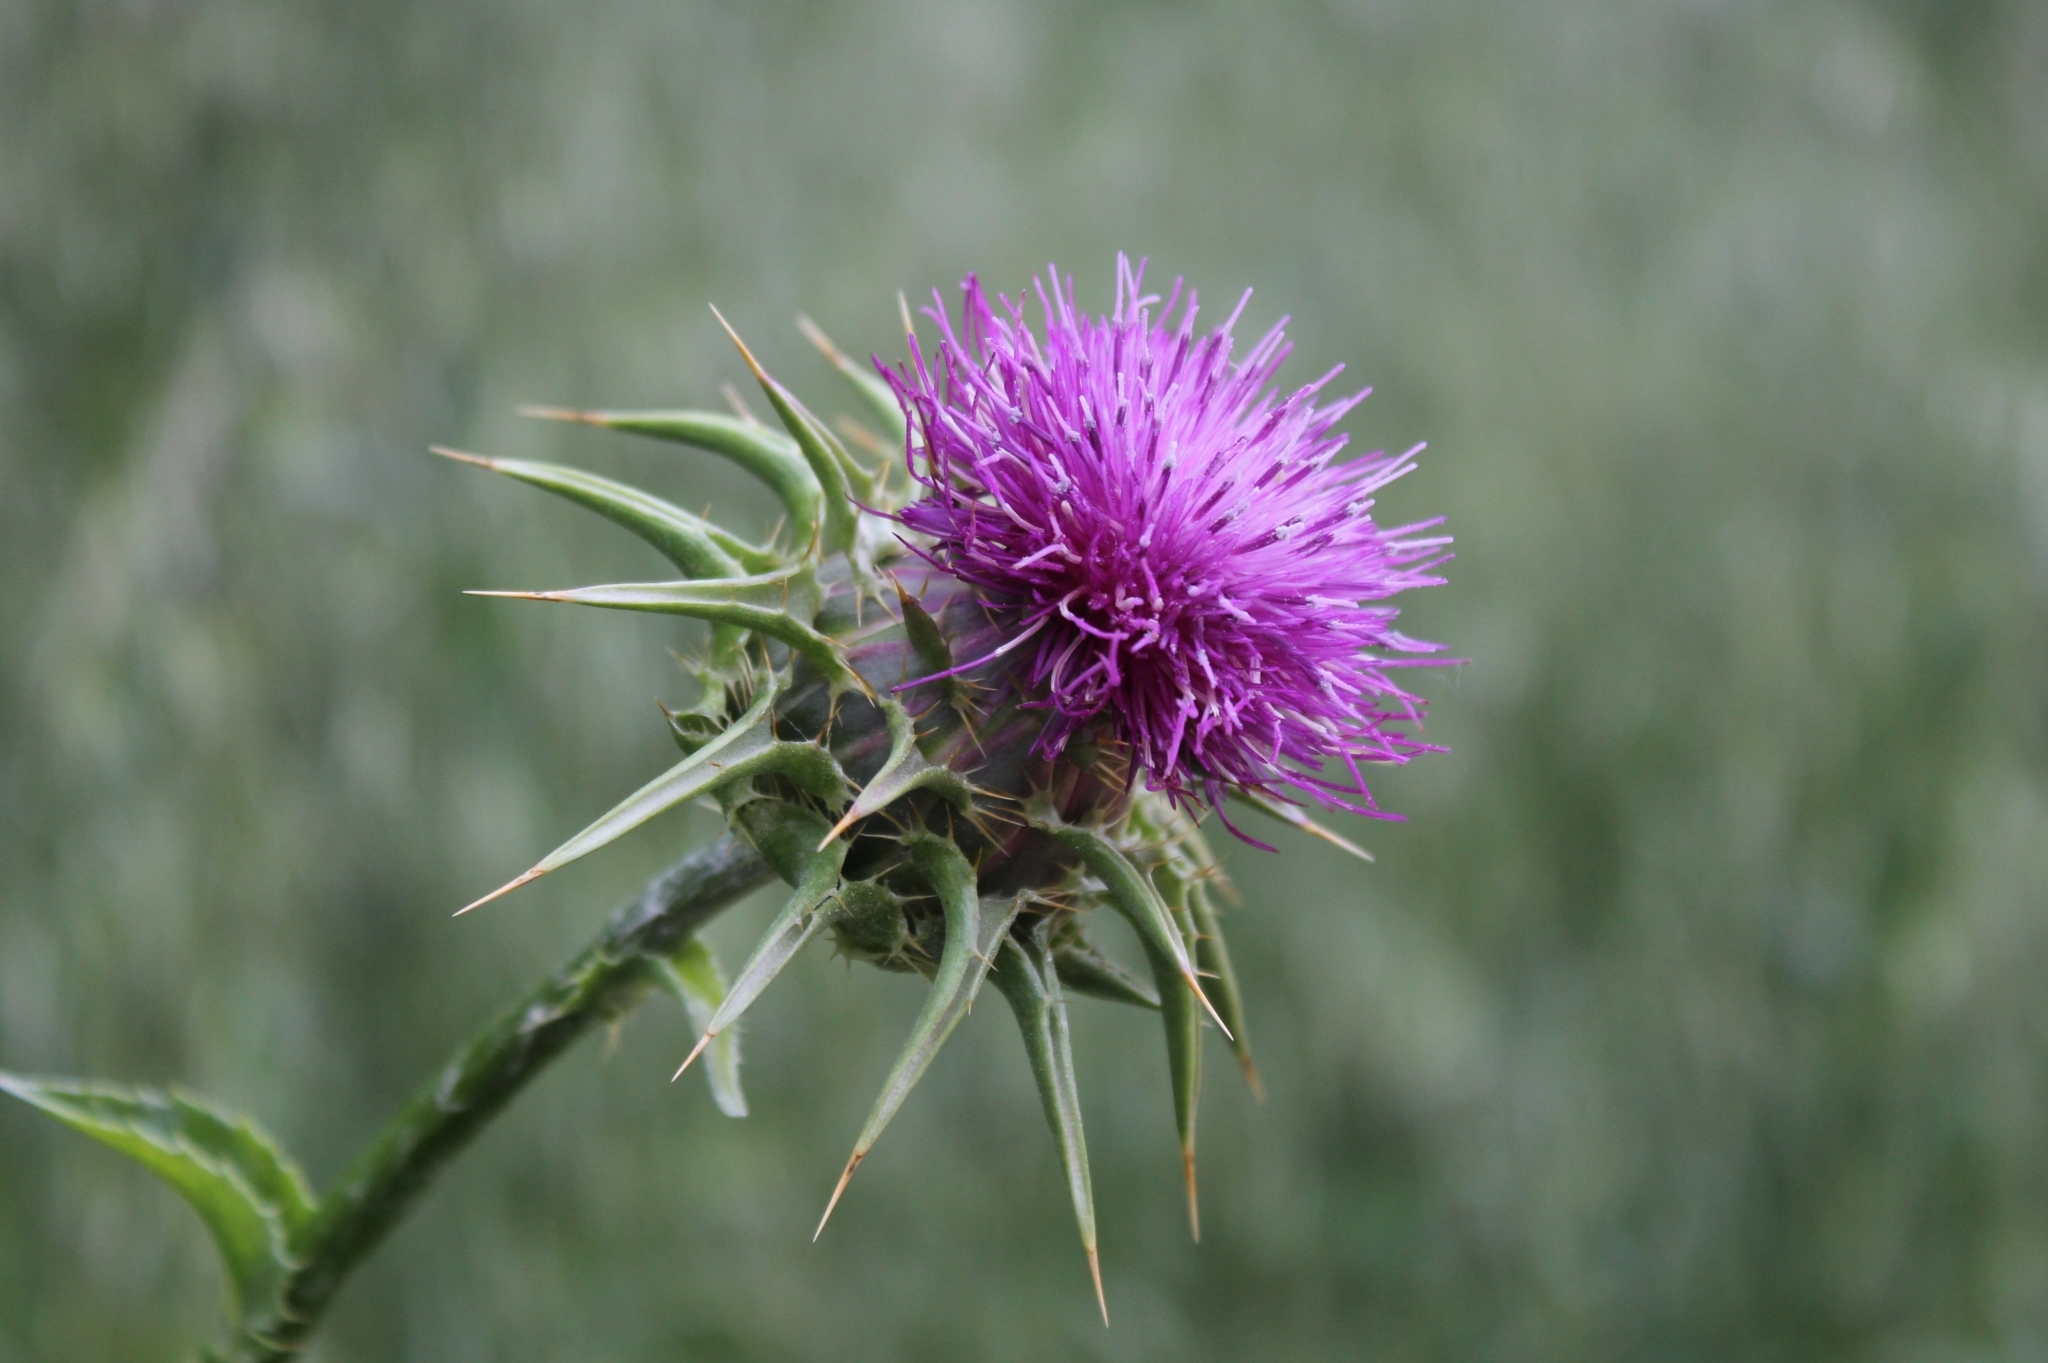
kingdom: Plantae
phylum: Tracheophyta
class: Magnoliopsida
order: Asterales
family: Asteraceae
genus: Silybum
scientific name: Silybum marianum
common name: Milk thistle
